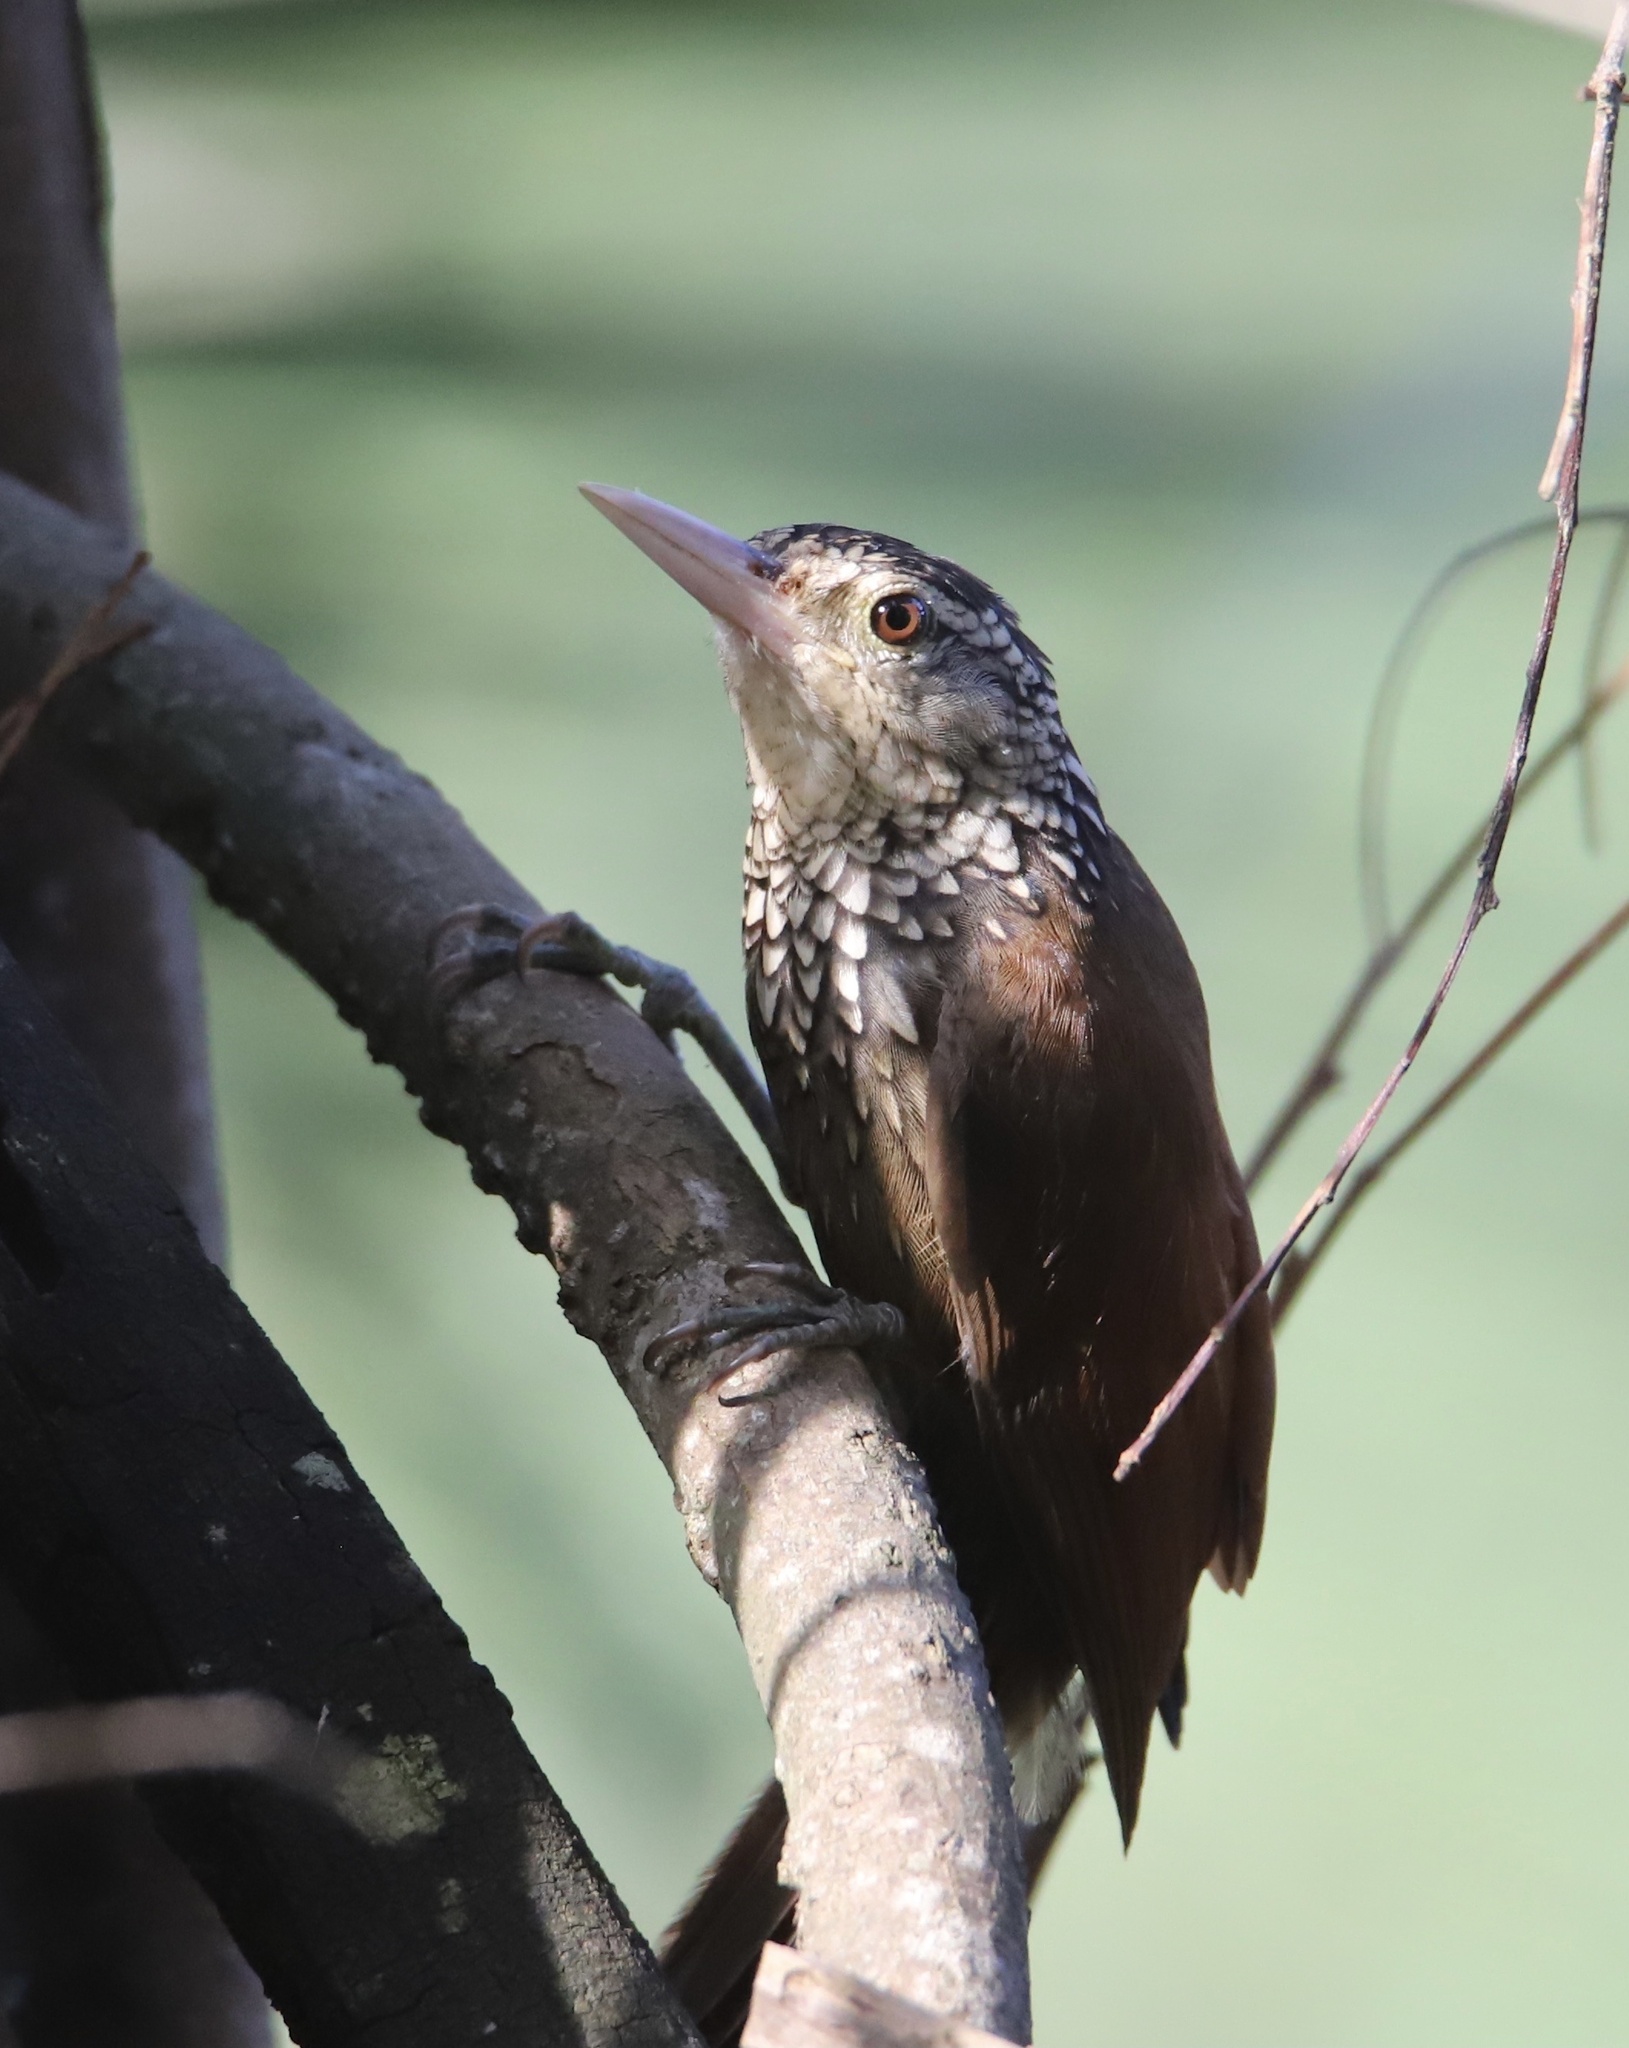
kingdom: Animalia
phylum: Chordata
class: Aves
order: Passeriformes
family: Furnariidae
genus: Xiphorhynchus
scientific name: Xiphorhynchus picus
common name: Straight-billed woodcreeper
